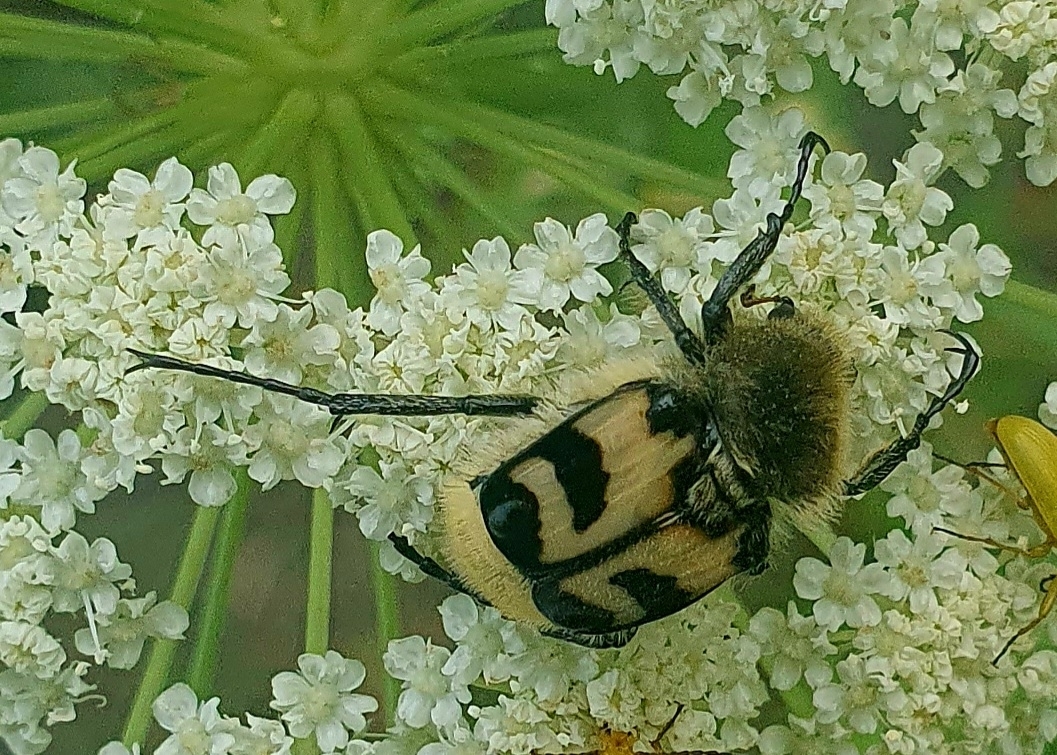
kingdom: Animalia
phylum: Arthropoda
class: Insecta
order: Coleoptera
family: Scarabaeidae
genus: Trichius
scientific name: Trichius fasciatus
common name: Bee beetle
